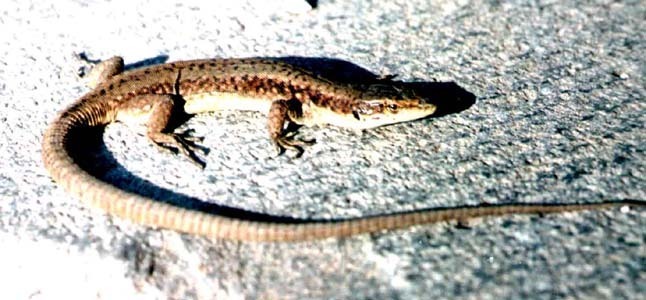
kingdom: Animalia
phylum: Chordata
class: Squamata
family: Lacertidae
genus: Darevskia
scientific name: Darevskia dahli
